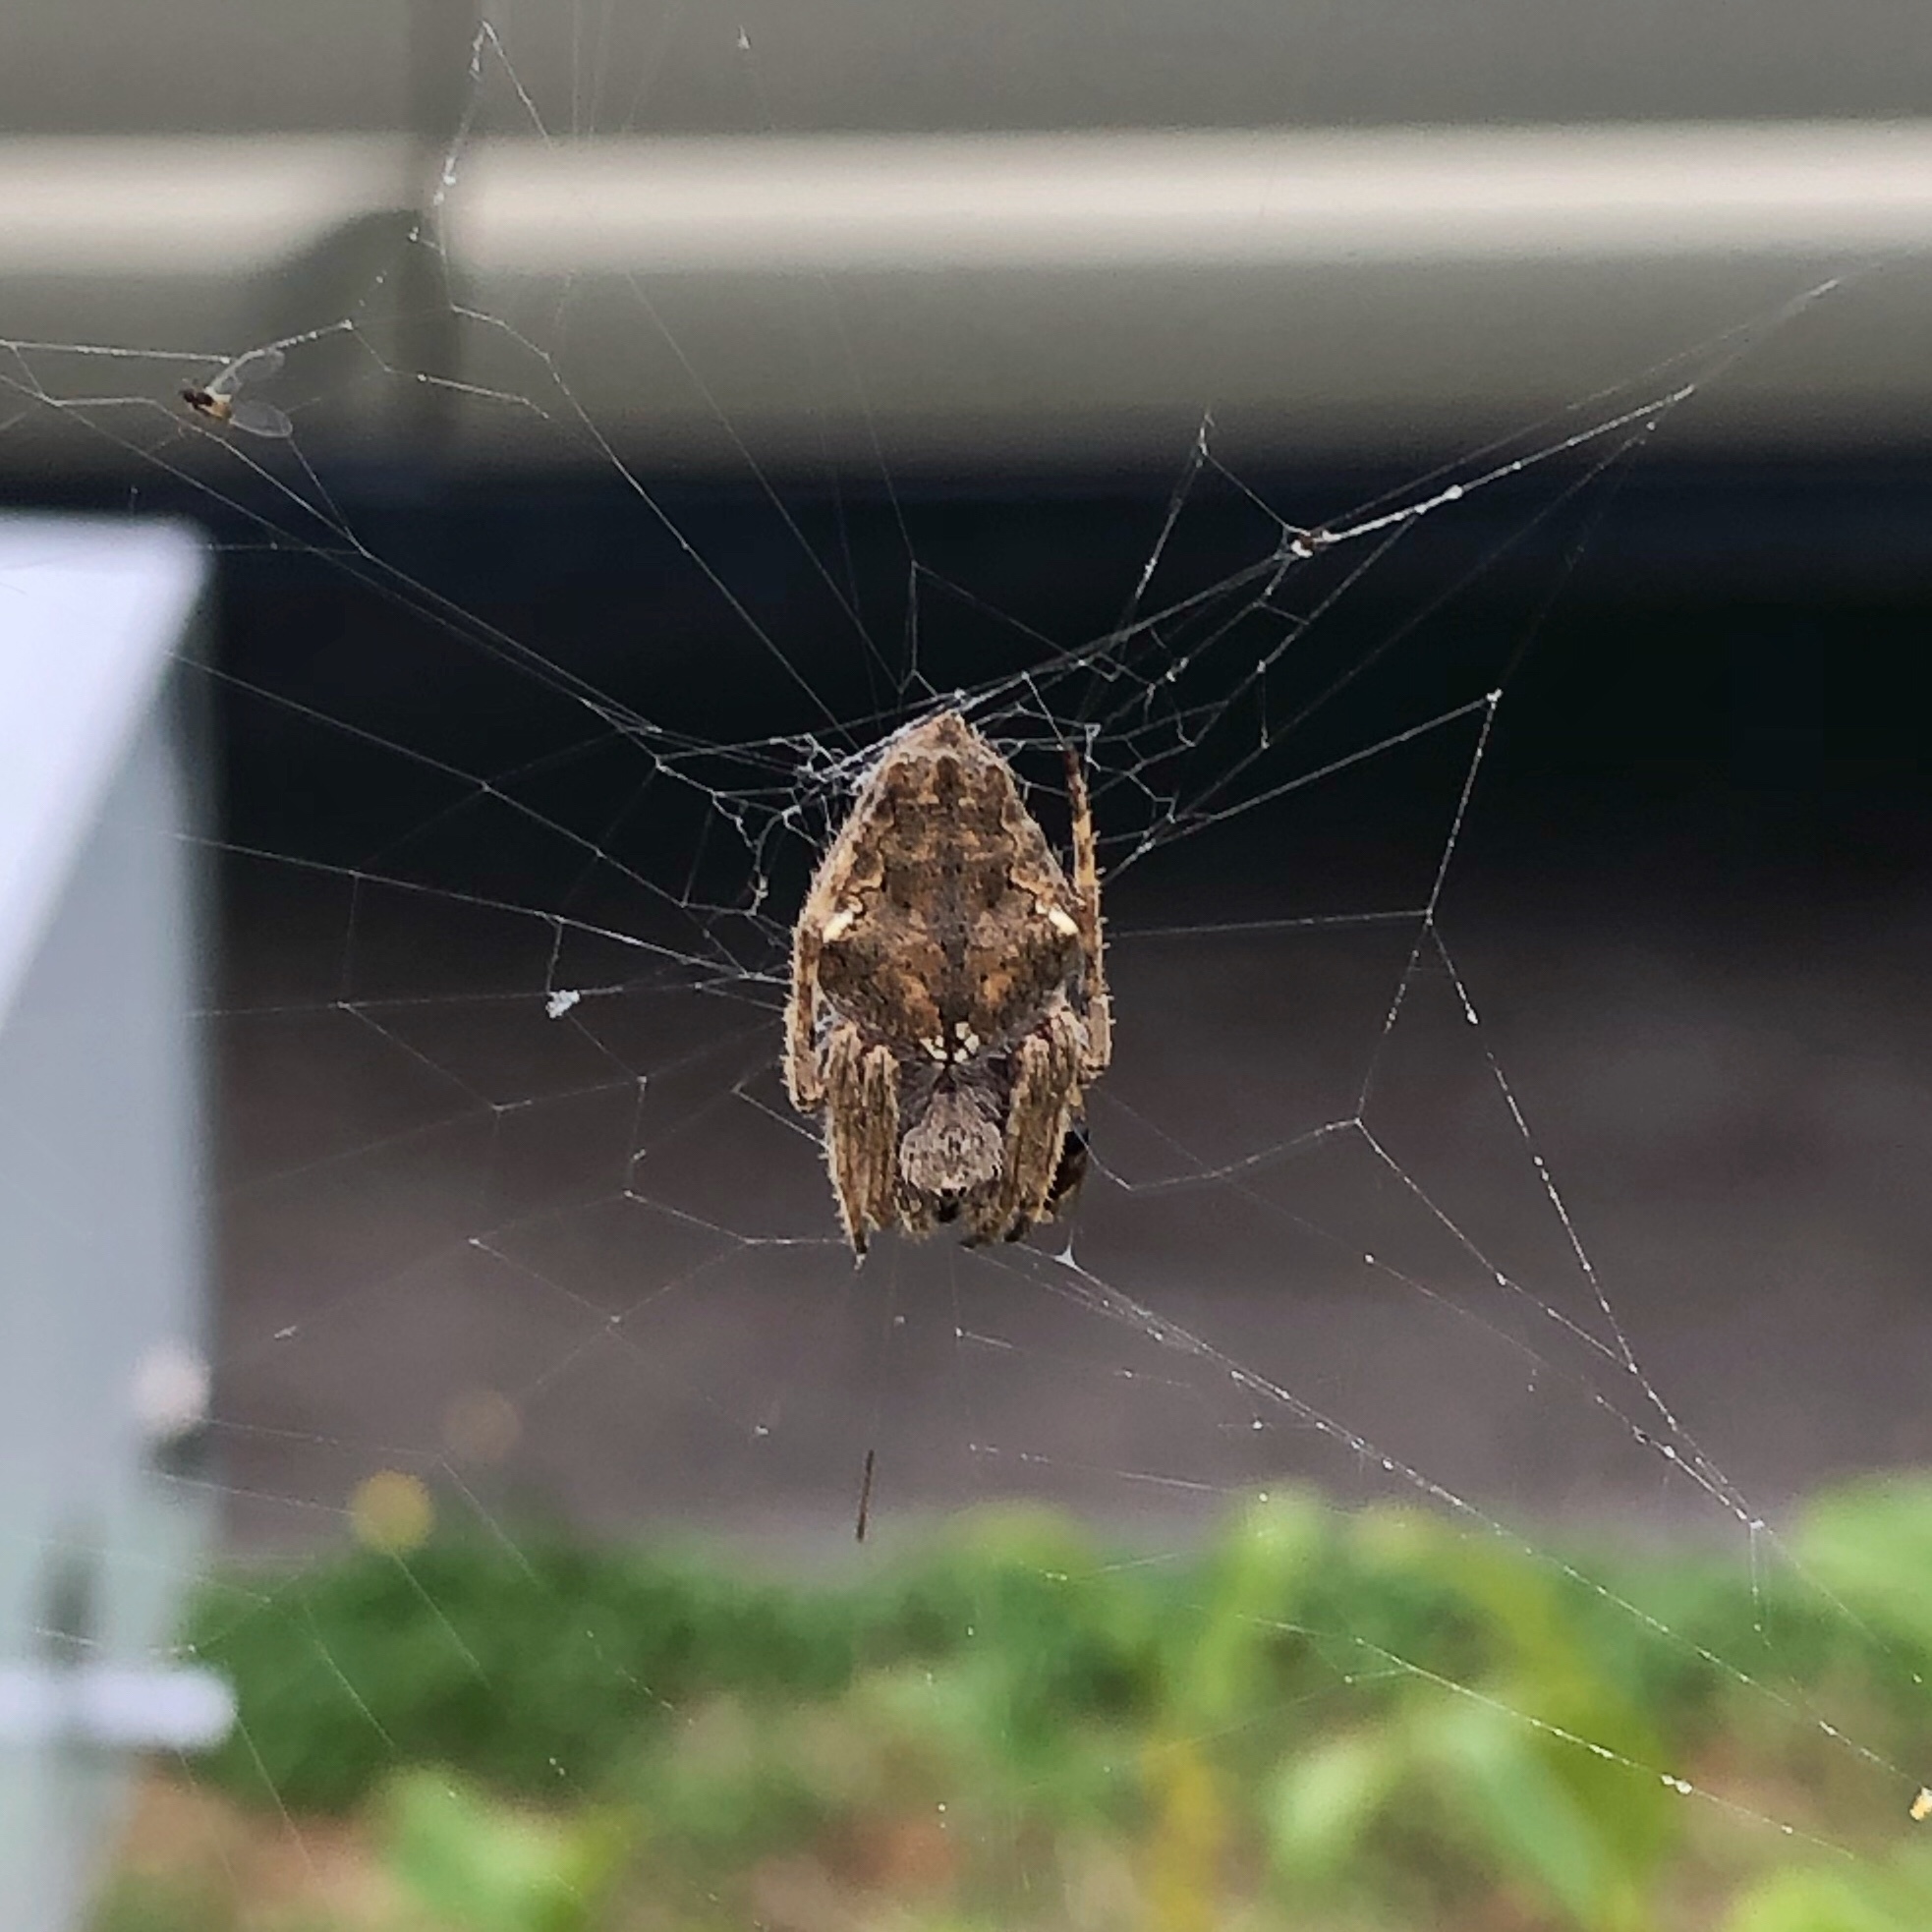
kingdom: Animalia
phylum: Arthropoda
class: Arachnida
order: Araneae
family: Araneidae
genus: Eriophora
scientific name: Eriophora pustulosa
